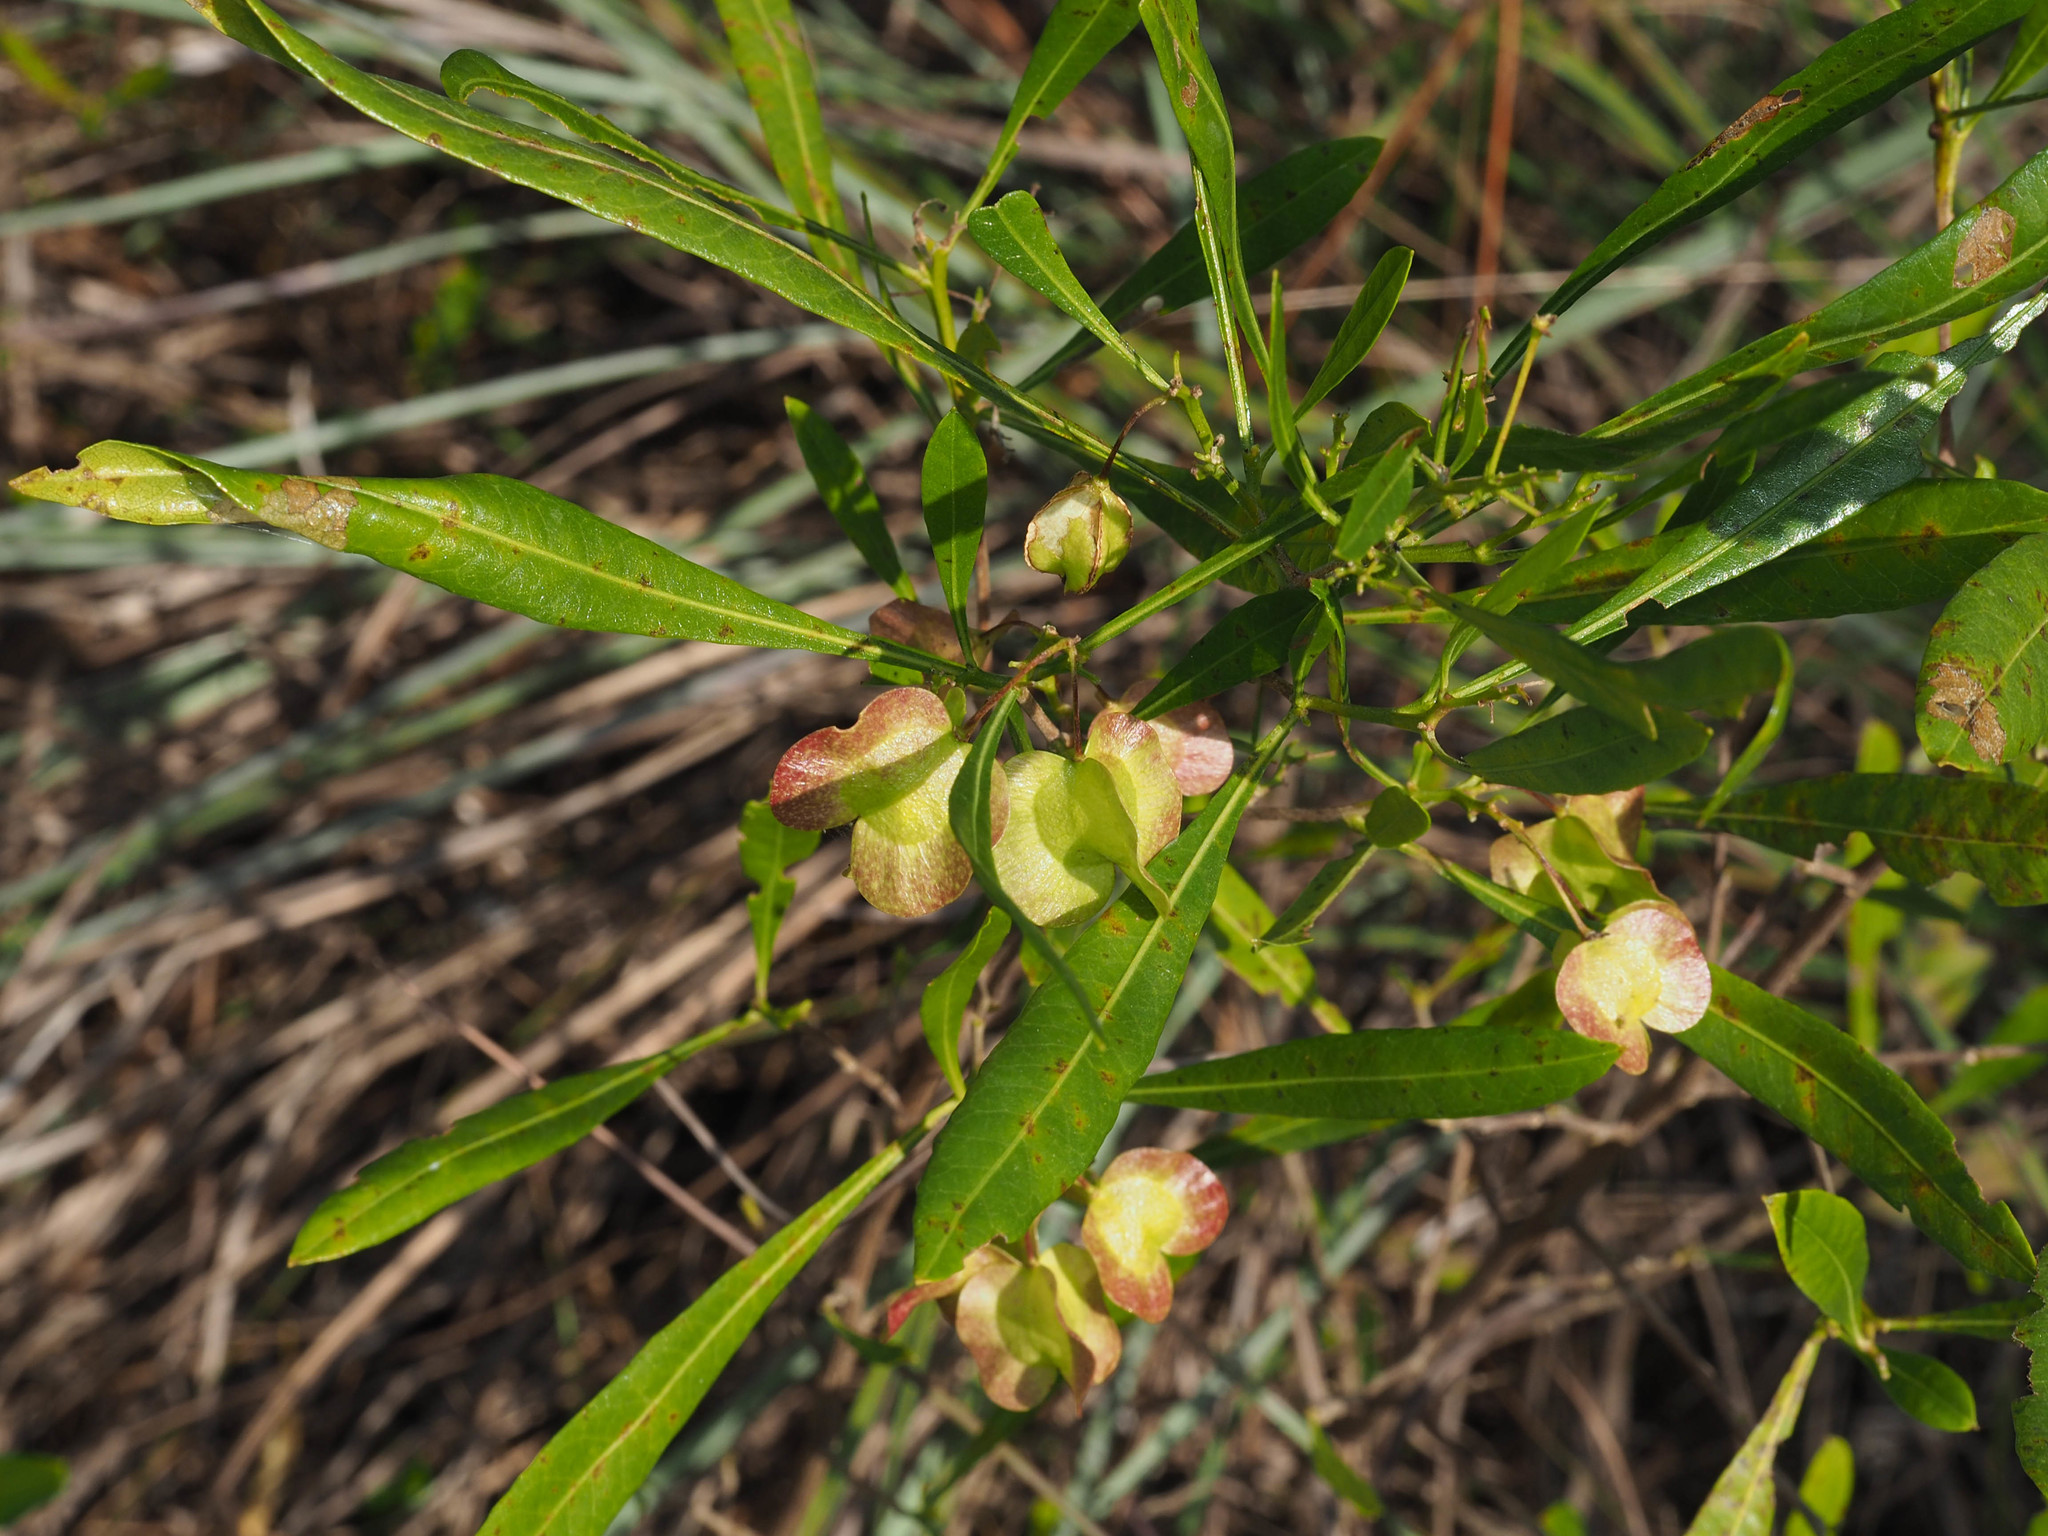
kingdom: Plantae
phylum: Tracheophyta
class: Magnoliopsida
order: Sapindales
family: Sapindaceae
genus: Dodonaea
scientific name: Dodonaea viscosa
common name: Hopbush
